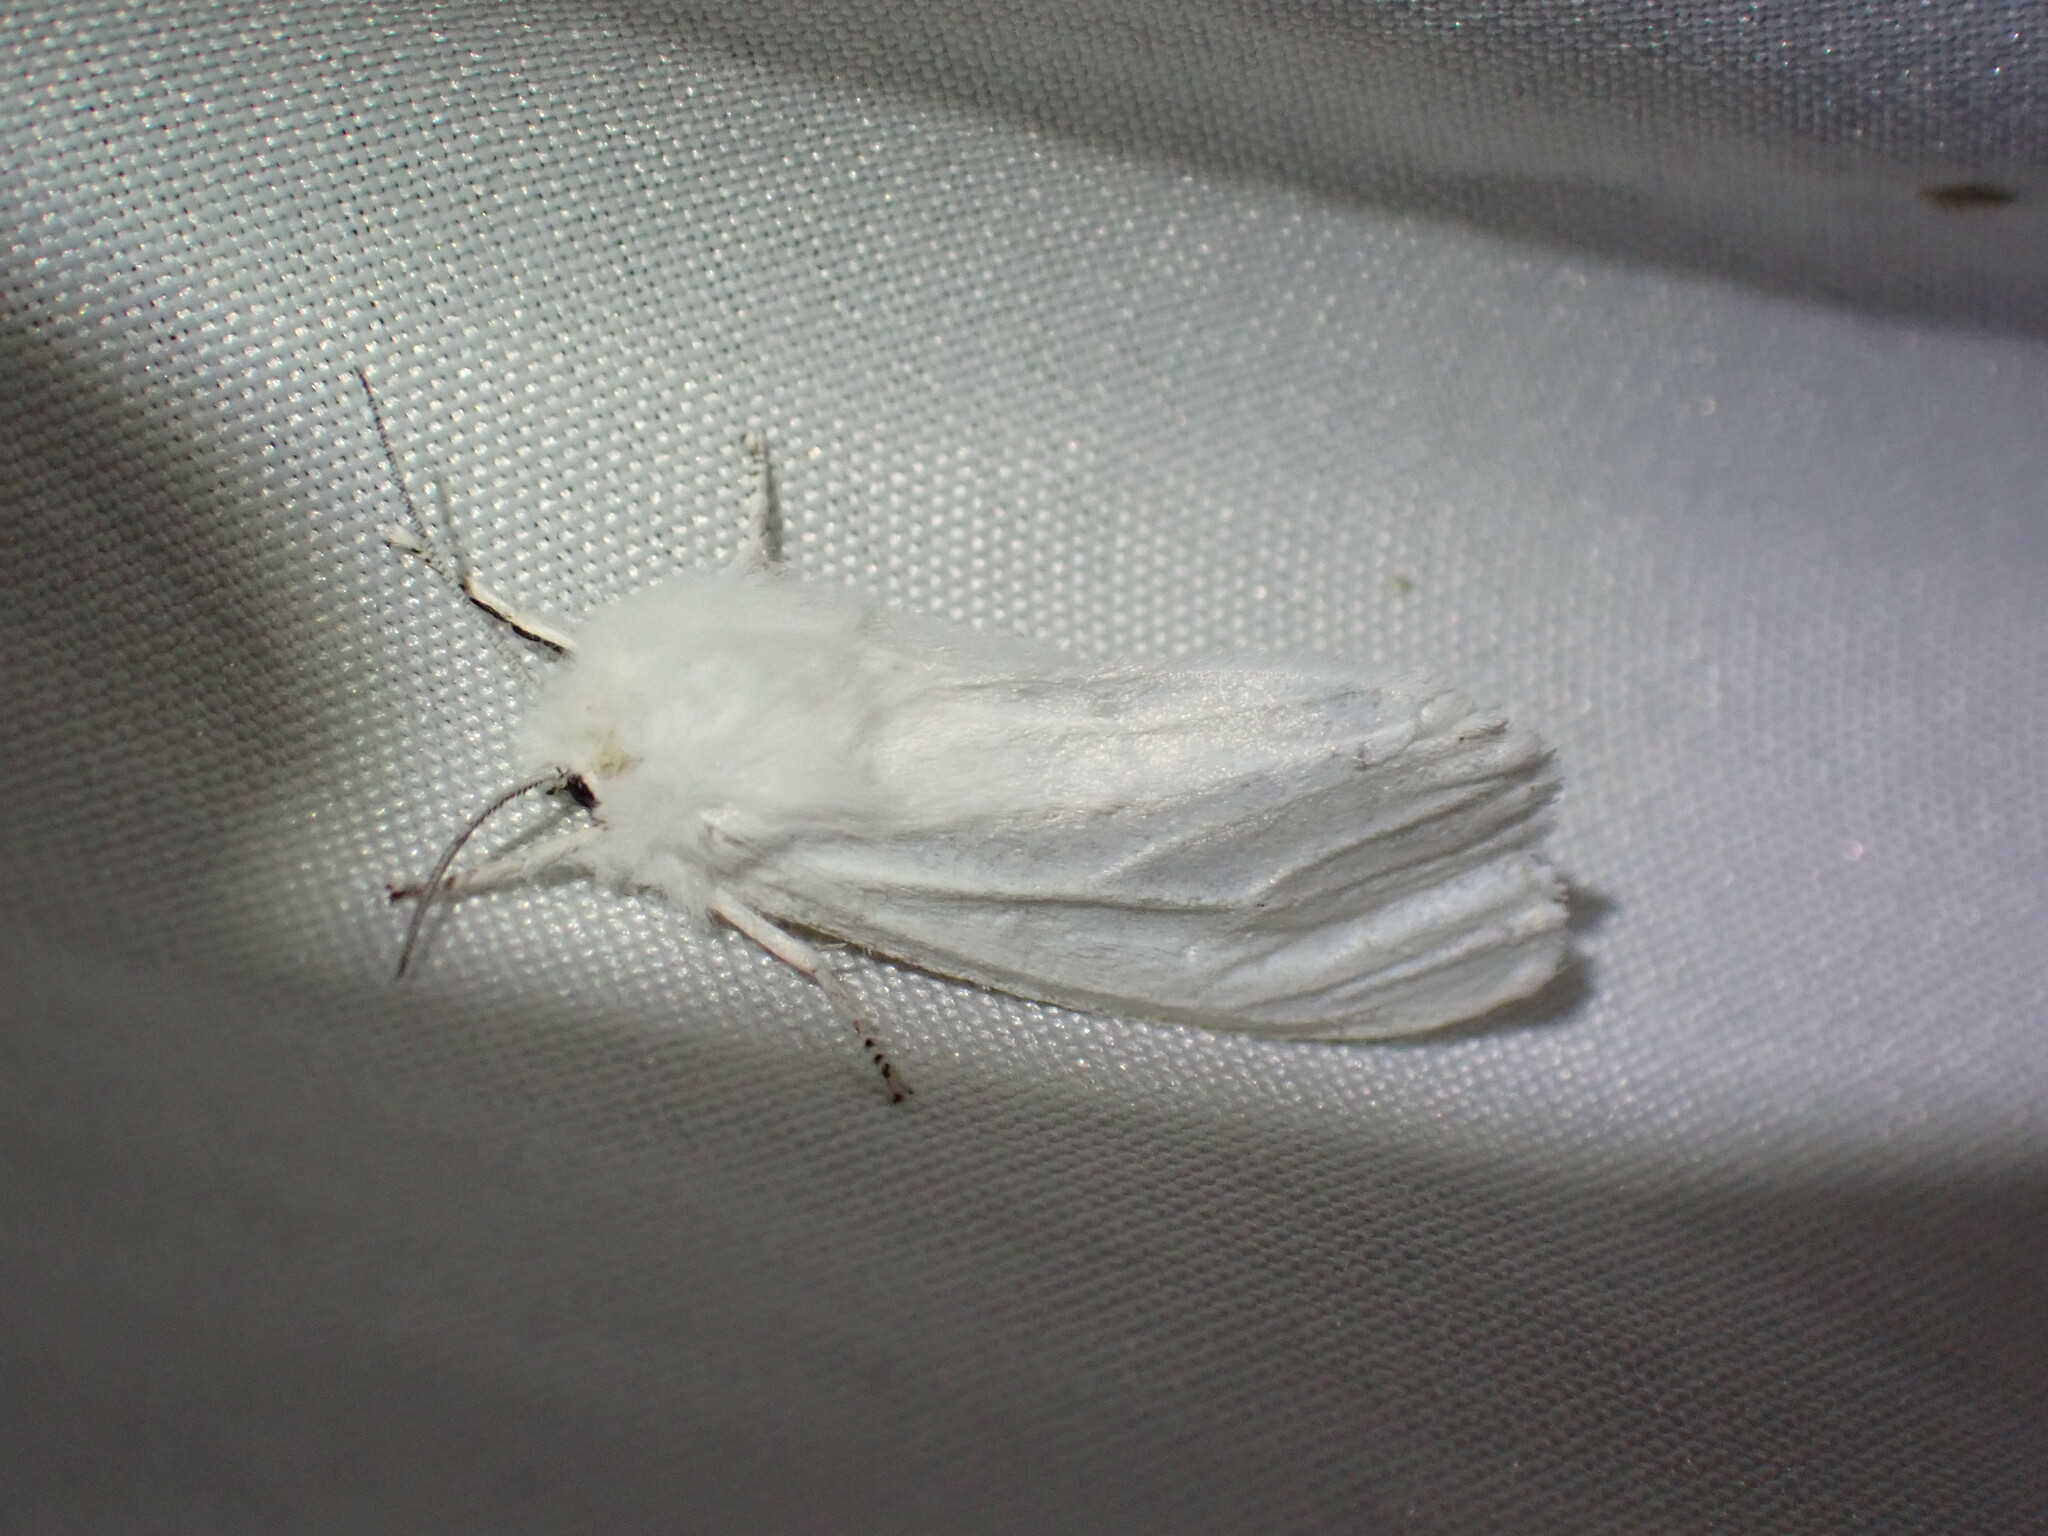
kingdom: Animalia
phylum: Arthropoda
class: Insecta
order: Lepidoptera
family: Erebidae
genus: Spilosoma
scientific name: Spilosoma virginica
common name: Virginia tiger moth
